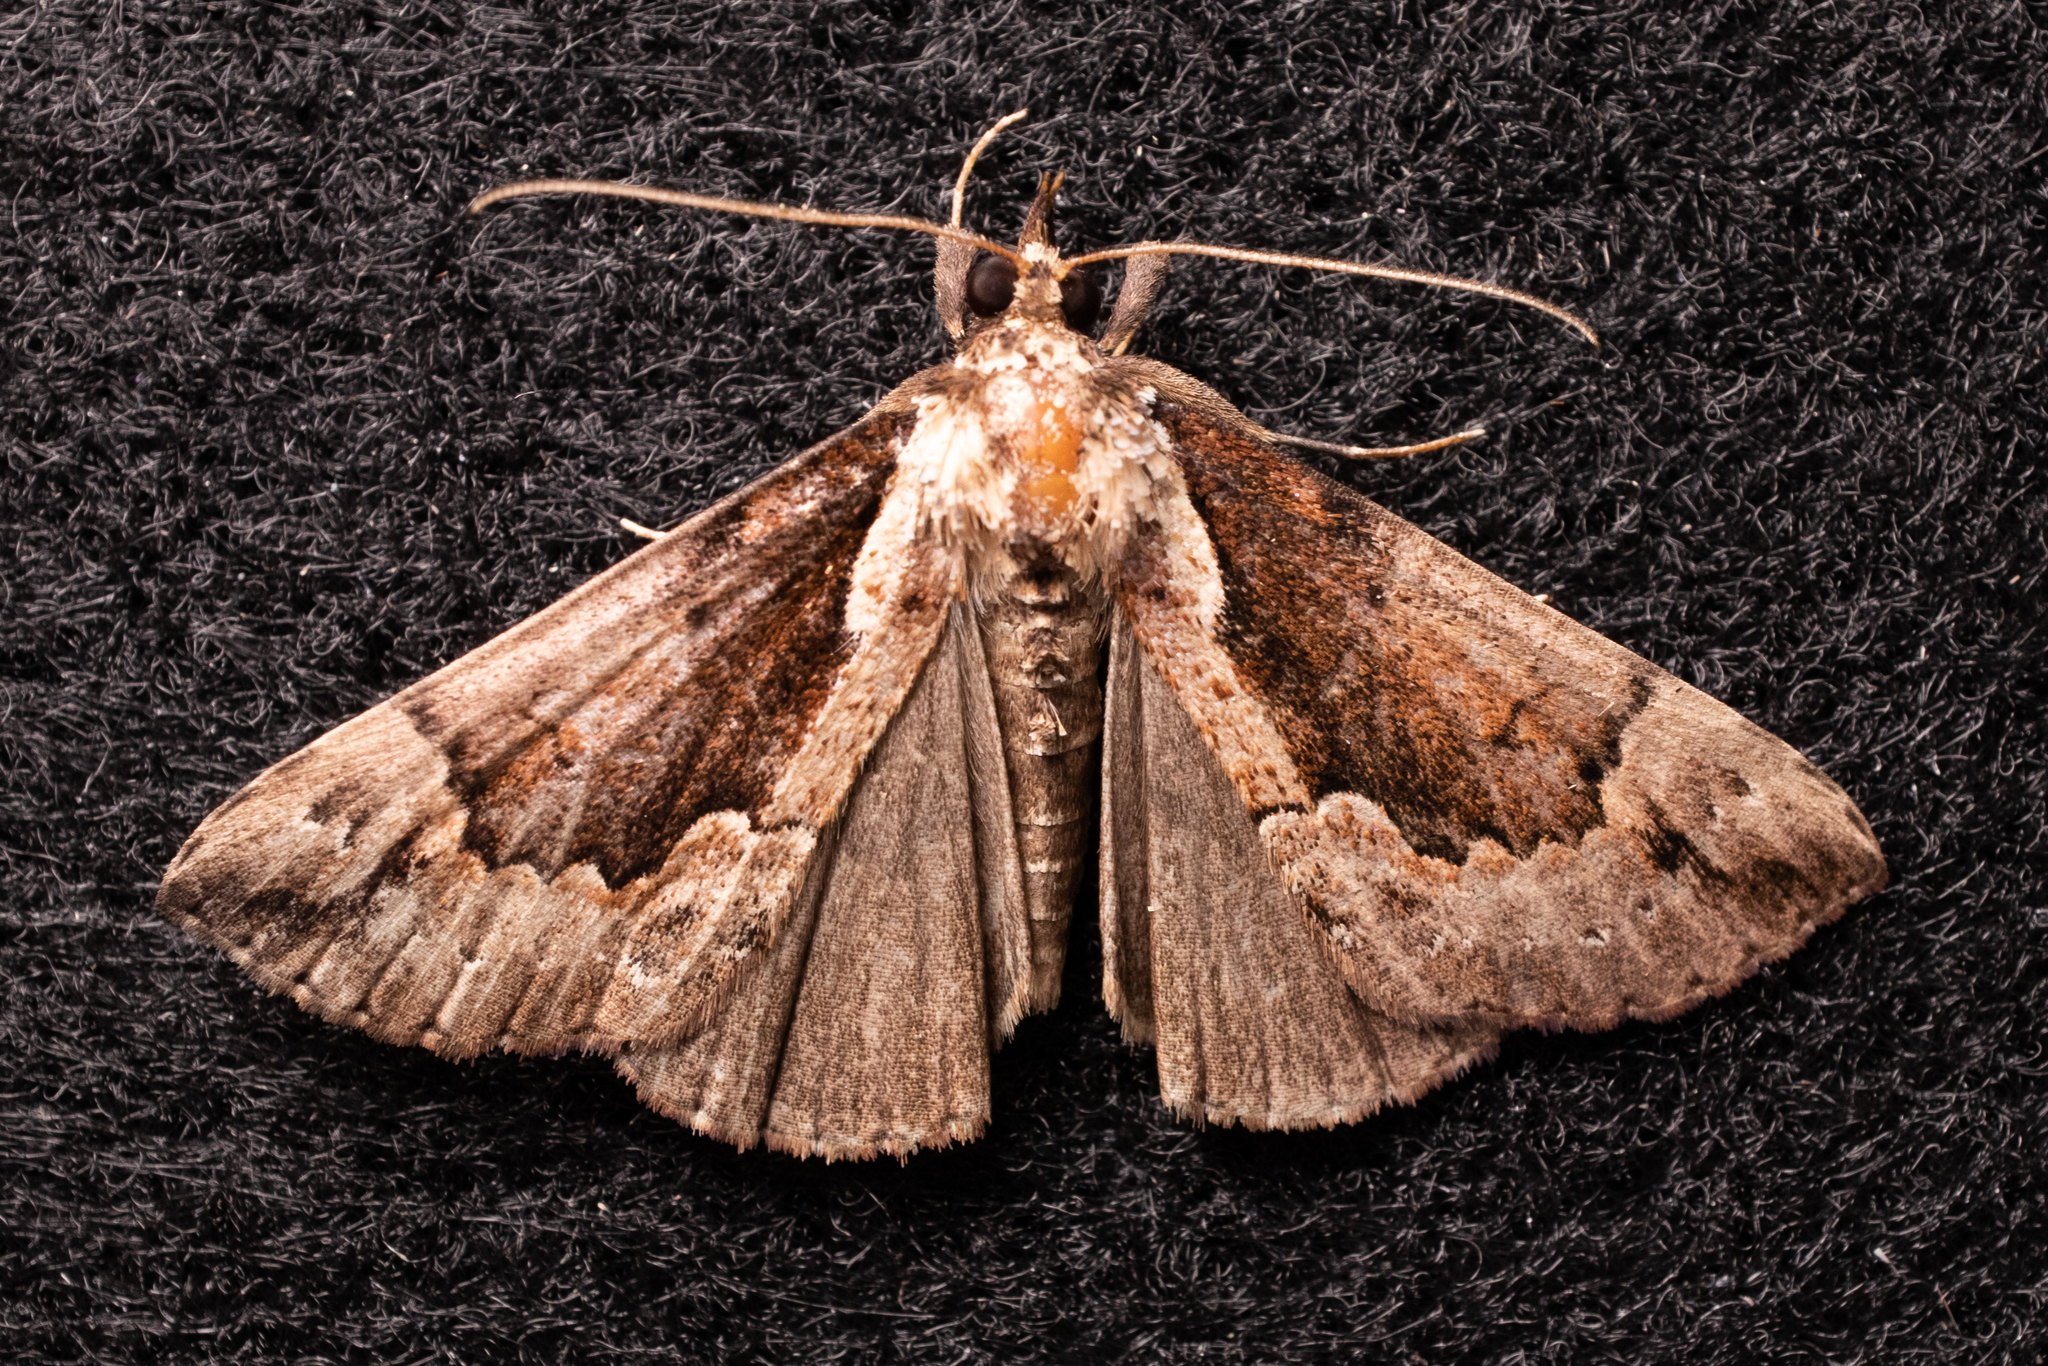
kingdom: Animalia
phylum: Arthropoda
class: Insecta
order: Lepidoptera
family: Erebidae
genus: Hypena
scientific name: Hypena baltimoralis
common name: Baltimore snout
